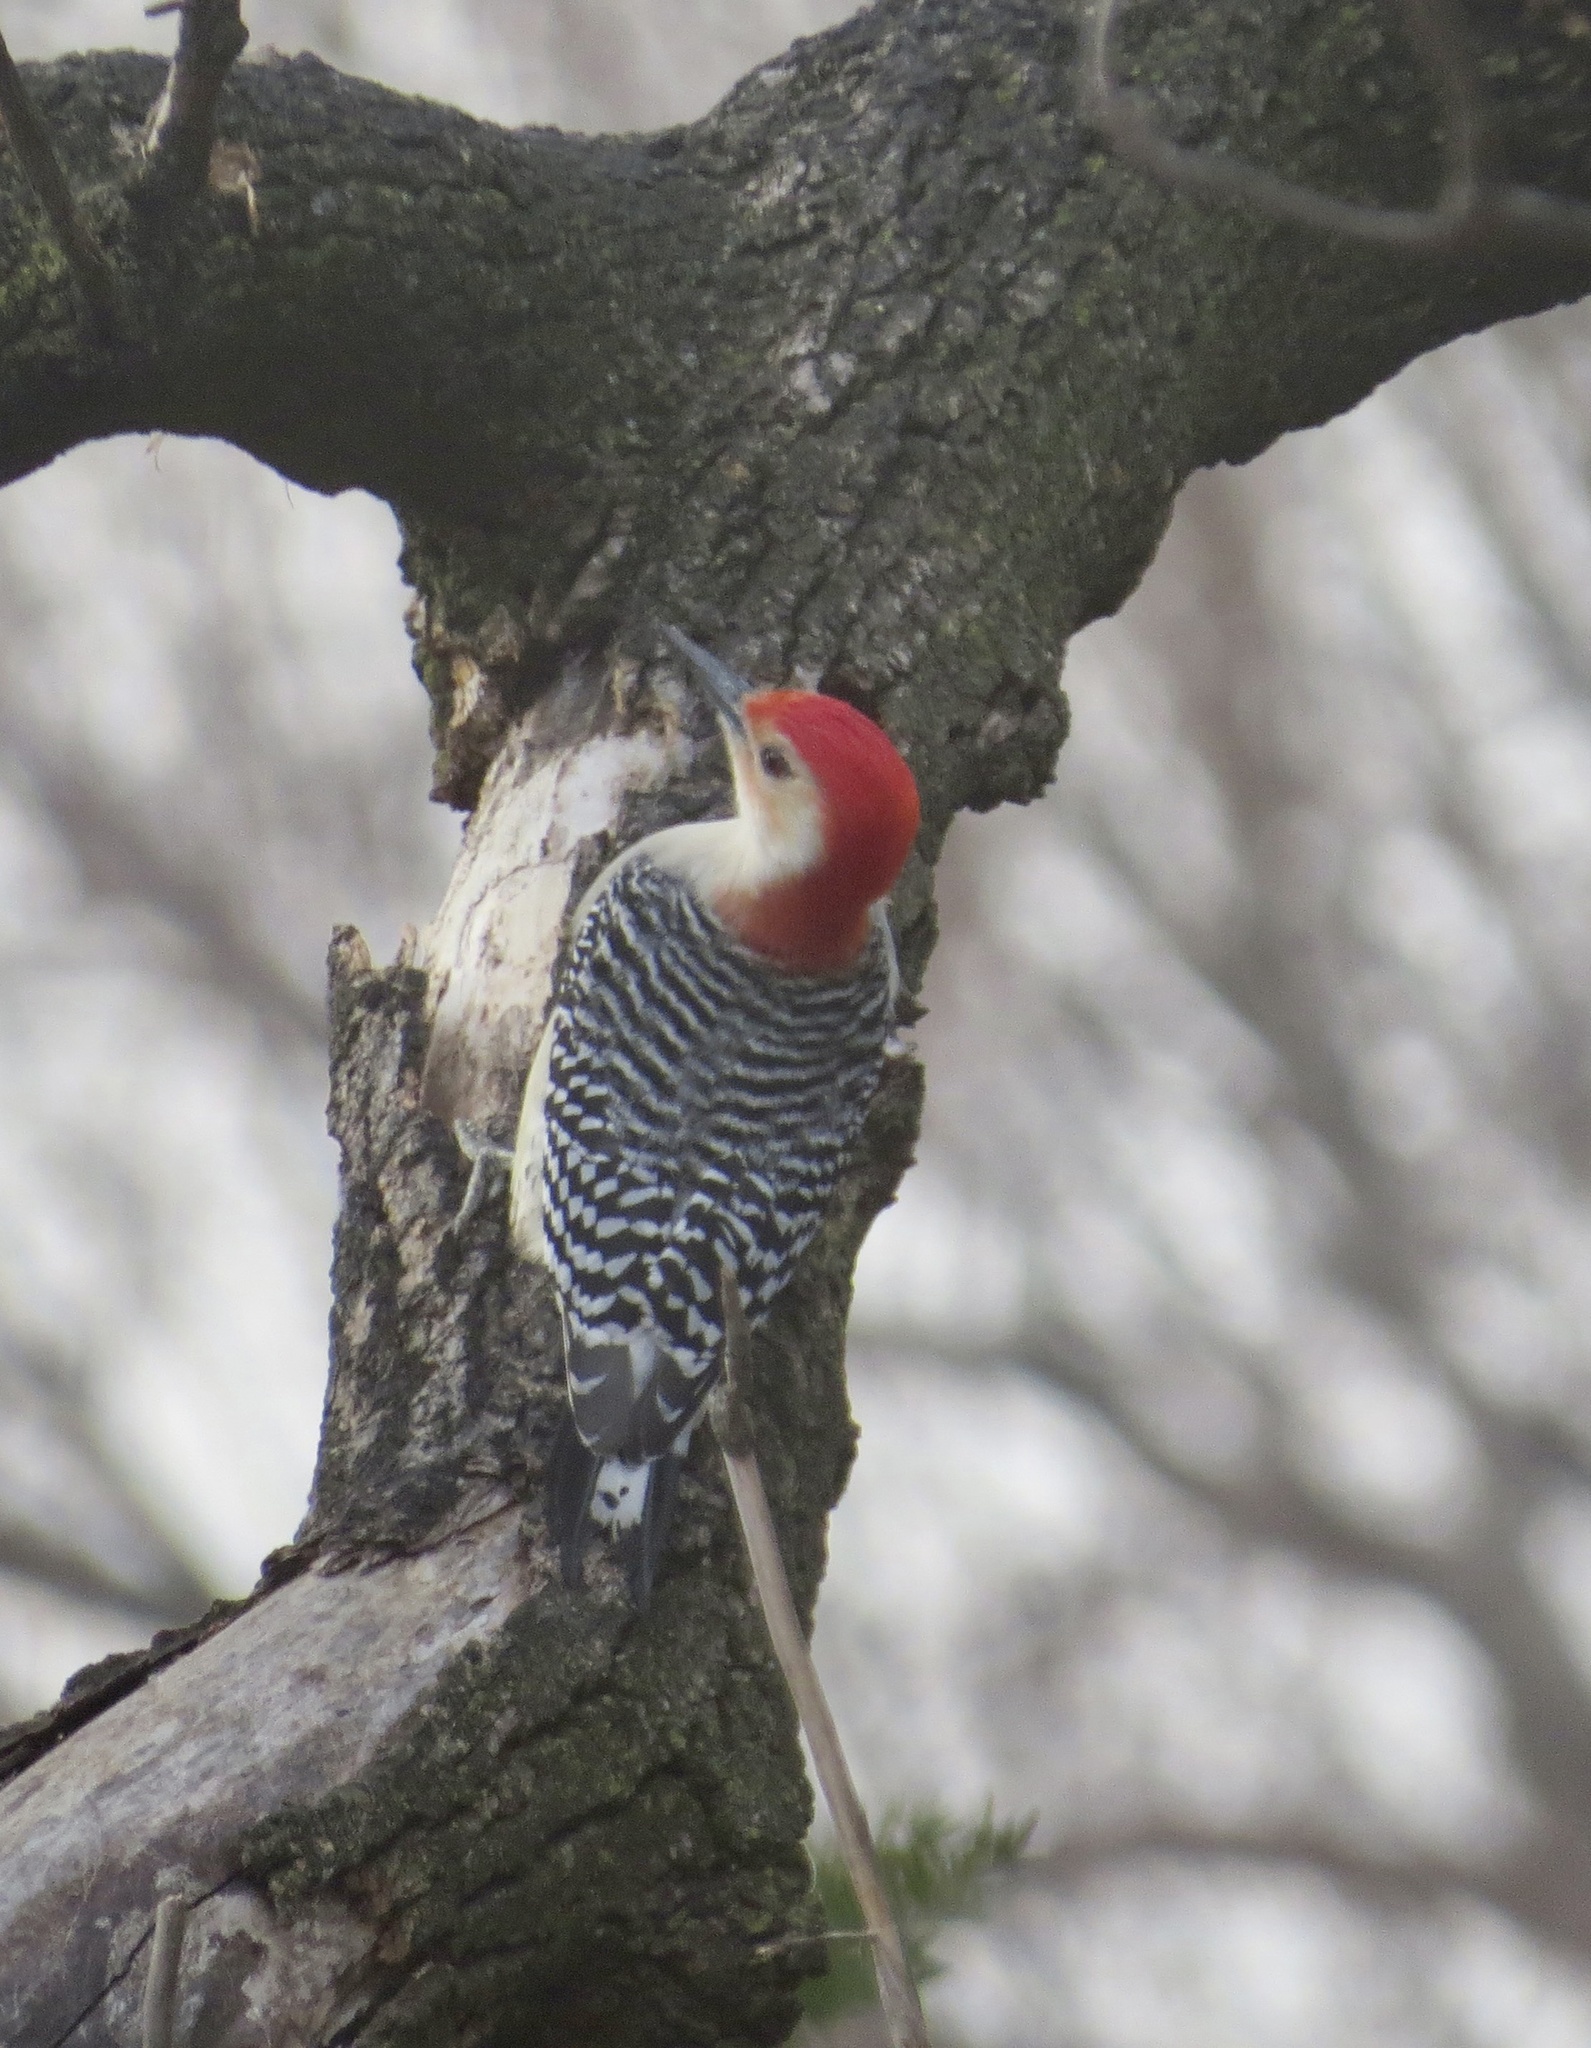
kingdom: Animalia
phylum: Chordata
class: Aves
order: Piciformes
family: Picidae
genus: Melanerpes
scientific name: Melanerpes carolinus
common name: Red-bellied woodpecker
